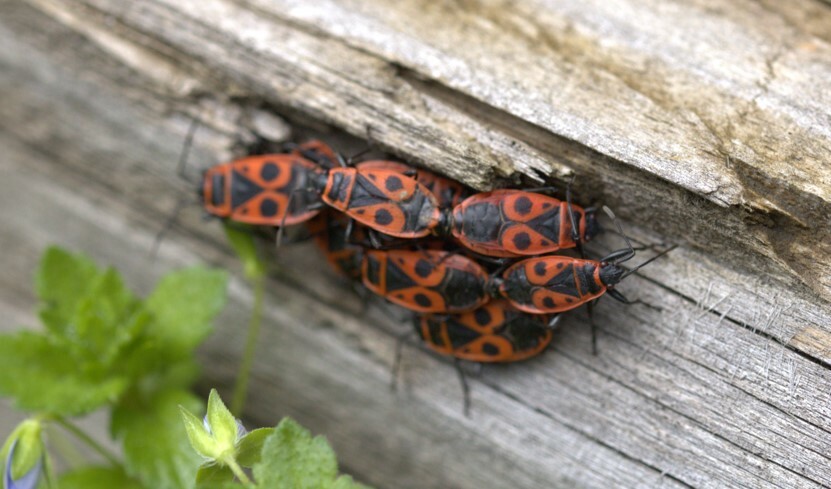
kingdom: Animalia
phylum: Arthropoda
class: Insecta
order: Hemiptera
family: Pyrrhocoridae
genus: Pyrrhocoris
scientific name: Pyrrhocoris apterus
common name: Firebug
